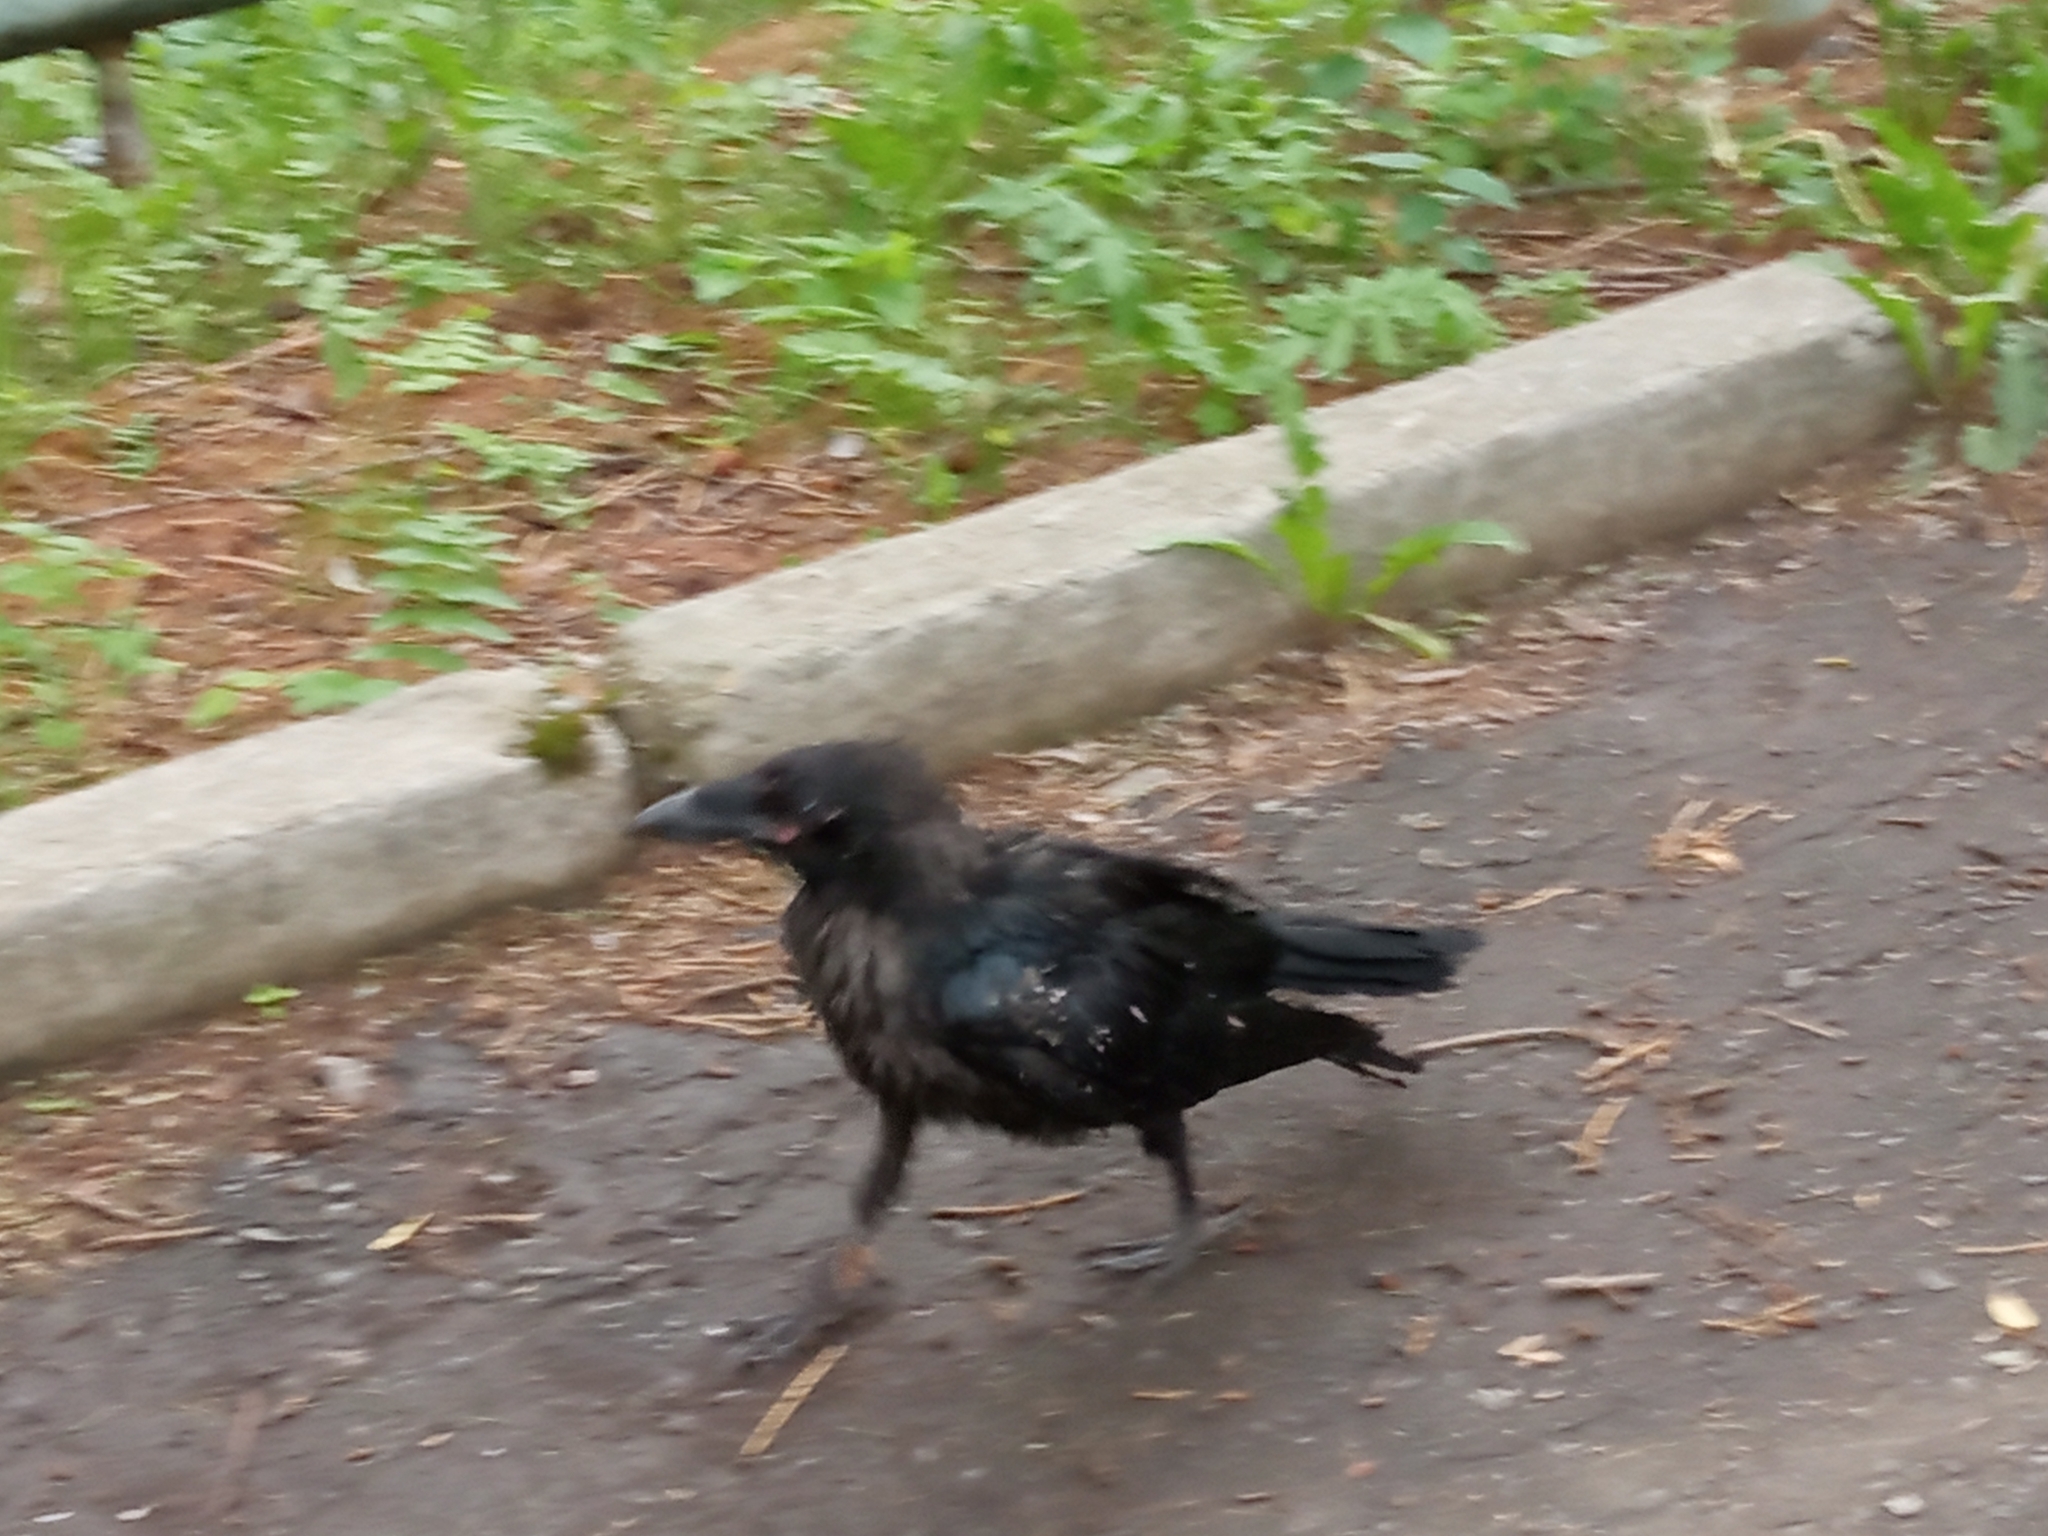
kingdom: Animalia
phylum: Chordata
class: Aves
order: Passeriformes
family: Corvidae
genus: Corvus
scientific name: Corvus corax
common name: Common raven
